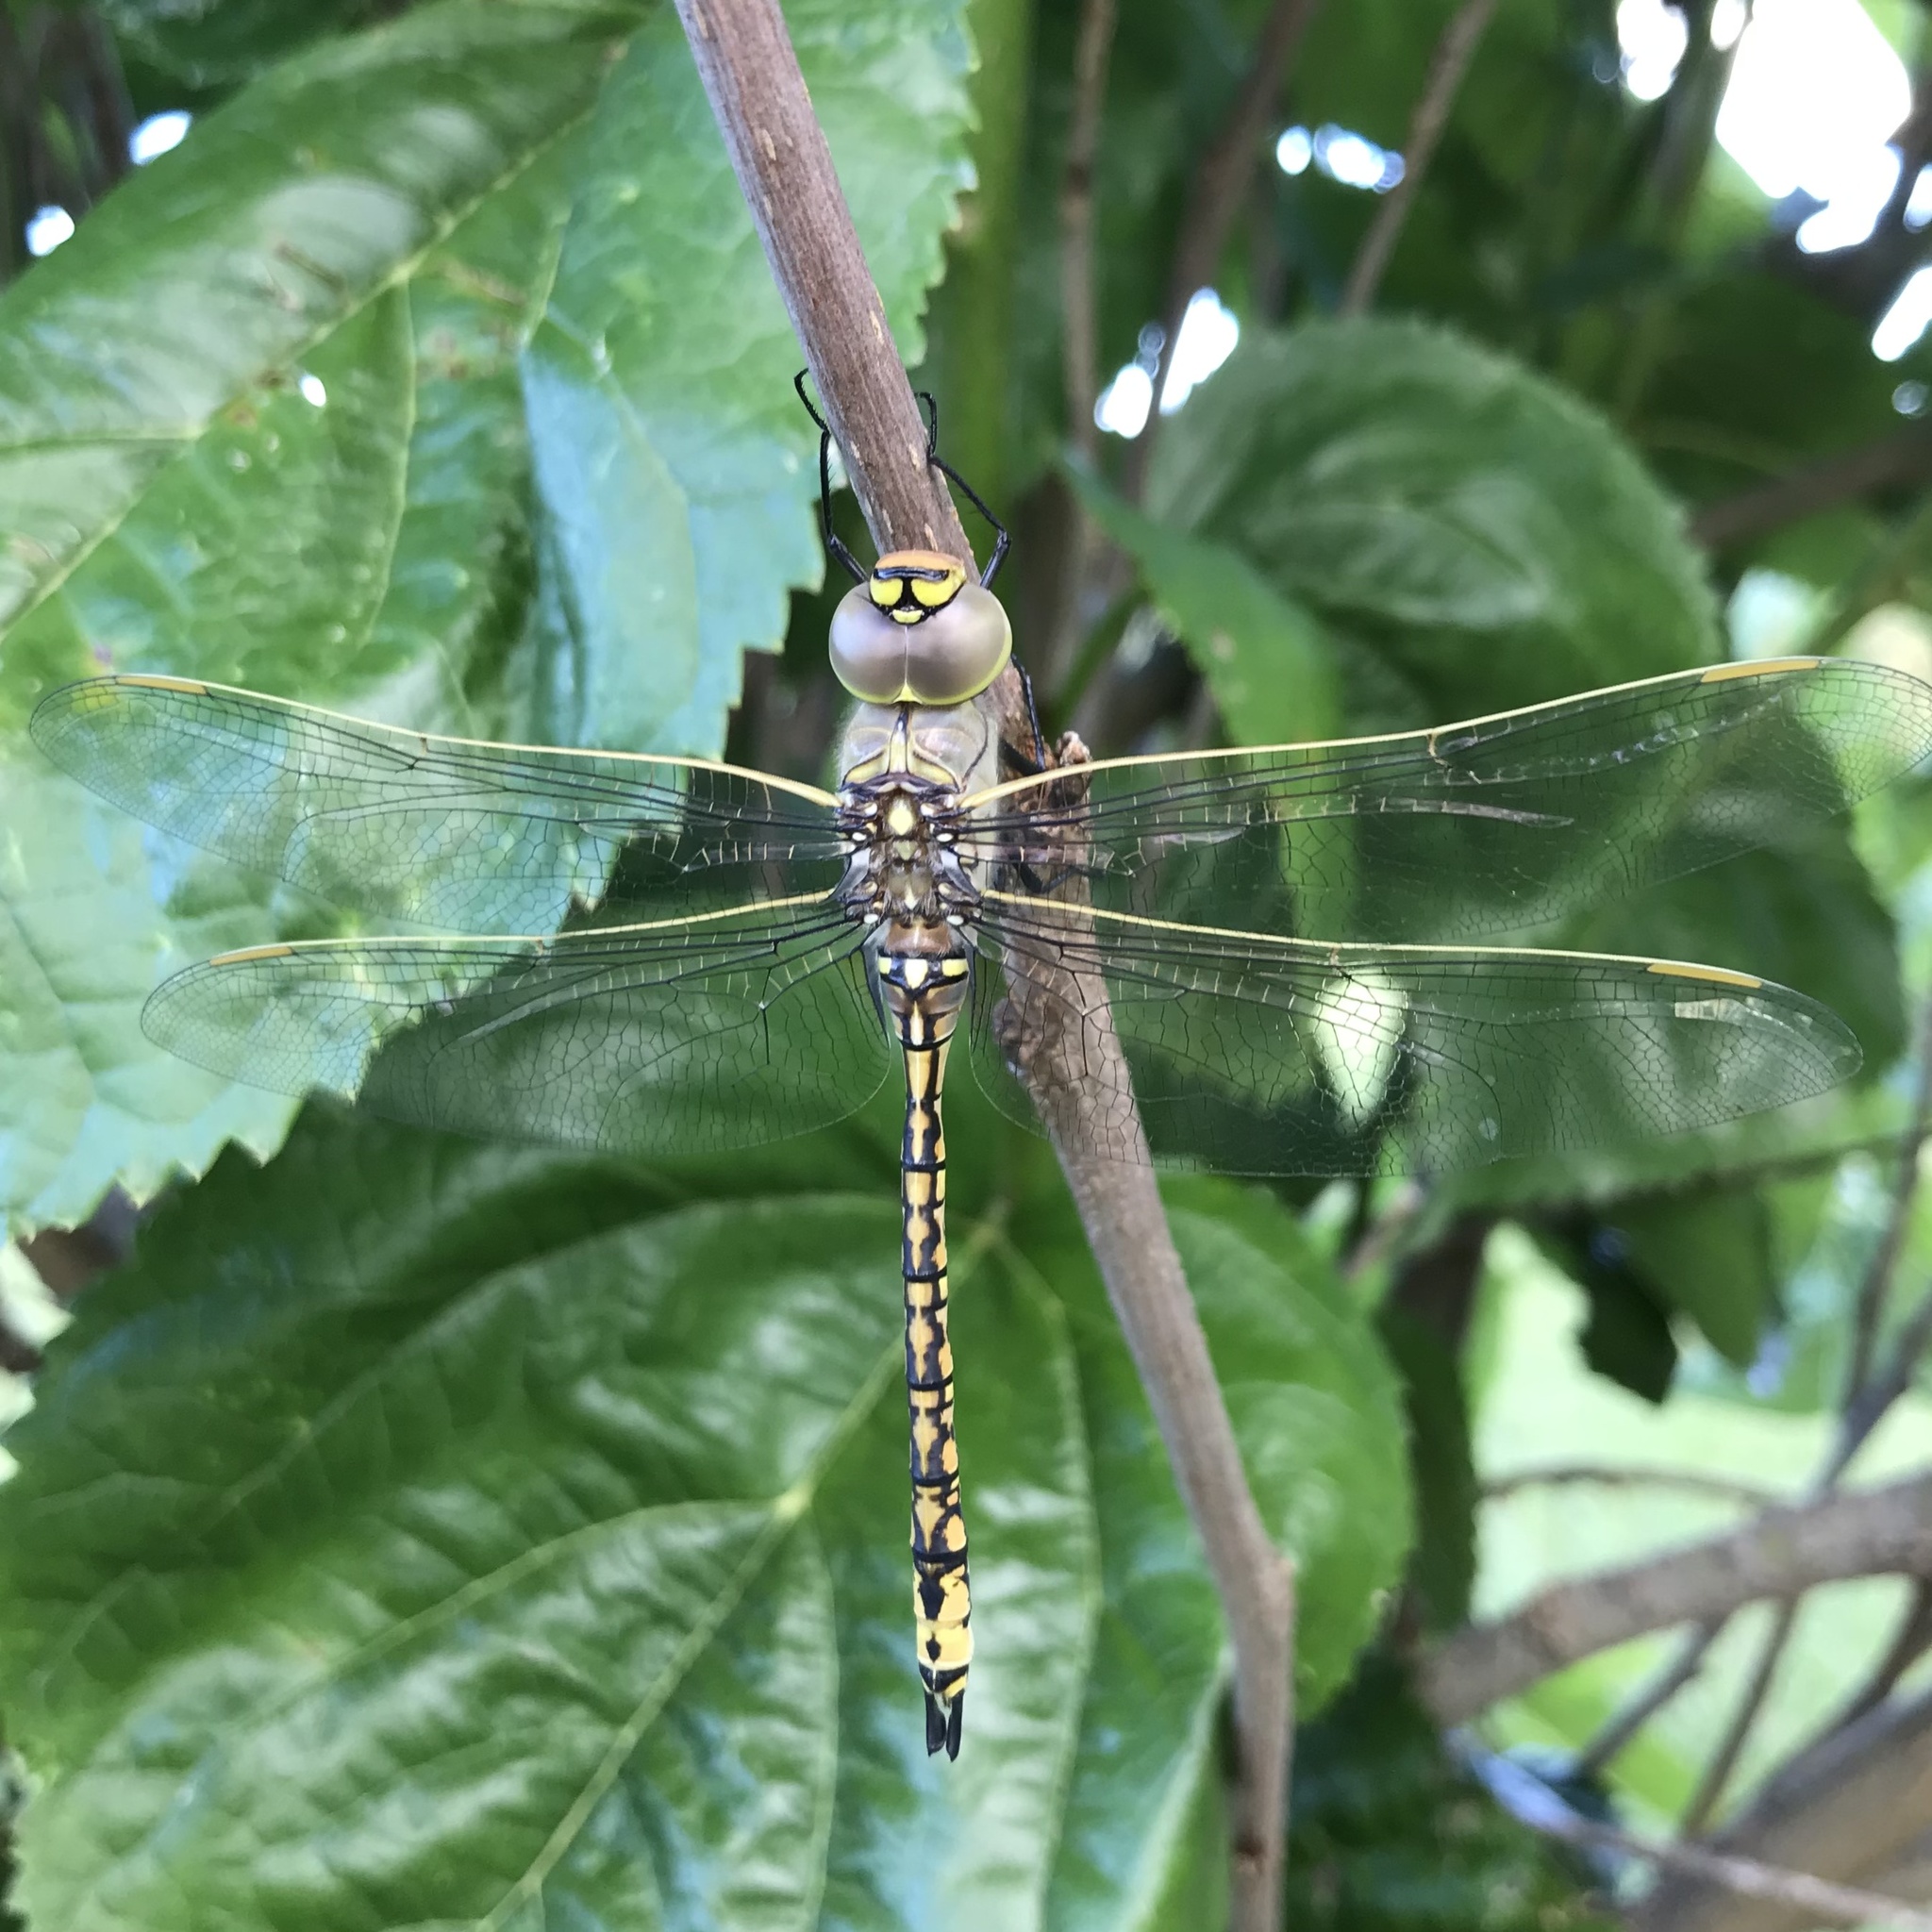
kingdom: Animalia
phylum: Arthropoda
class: Insecta
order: Odonata
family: Aeshnidae
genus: Anax
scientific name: Anax papuensis
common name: Australian emperor
